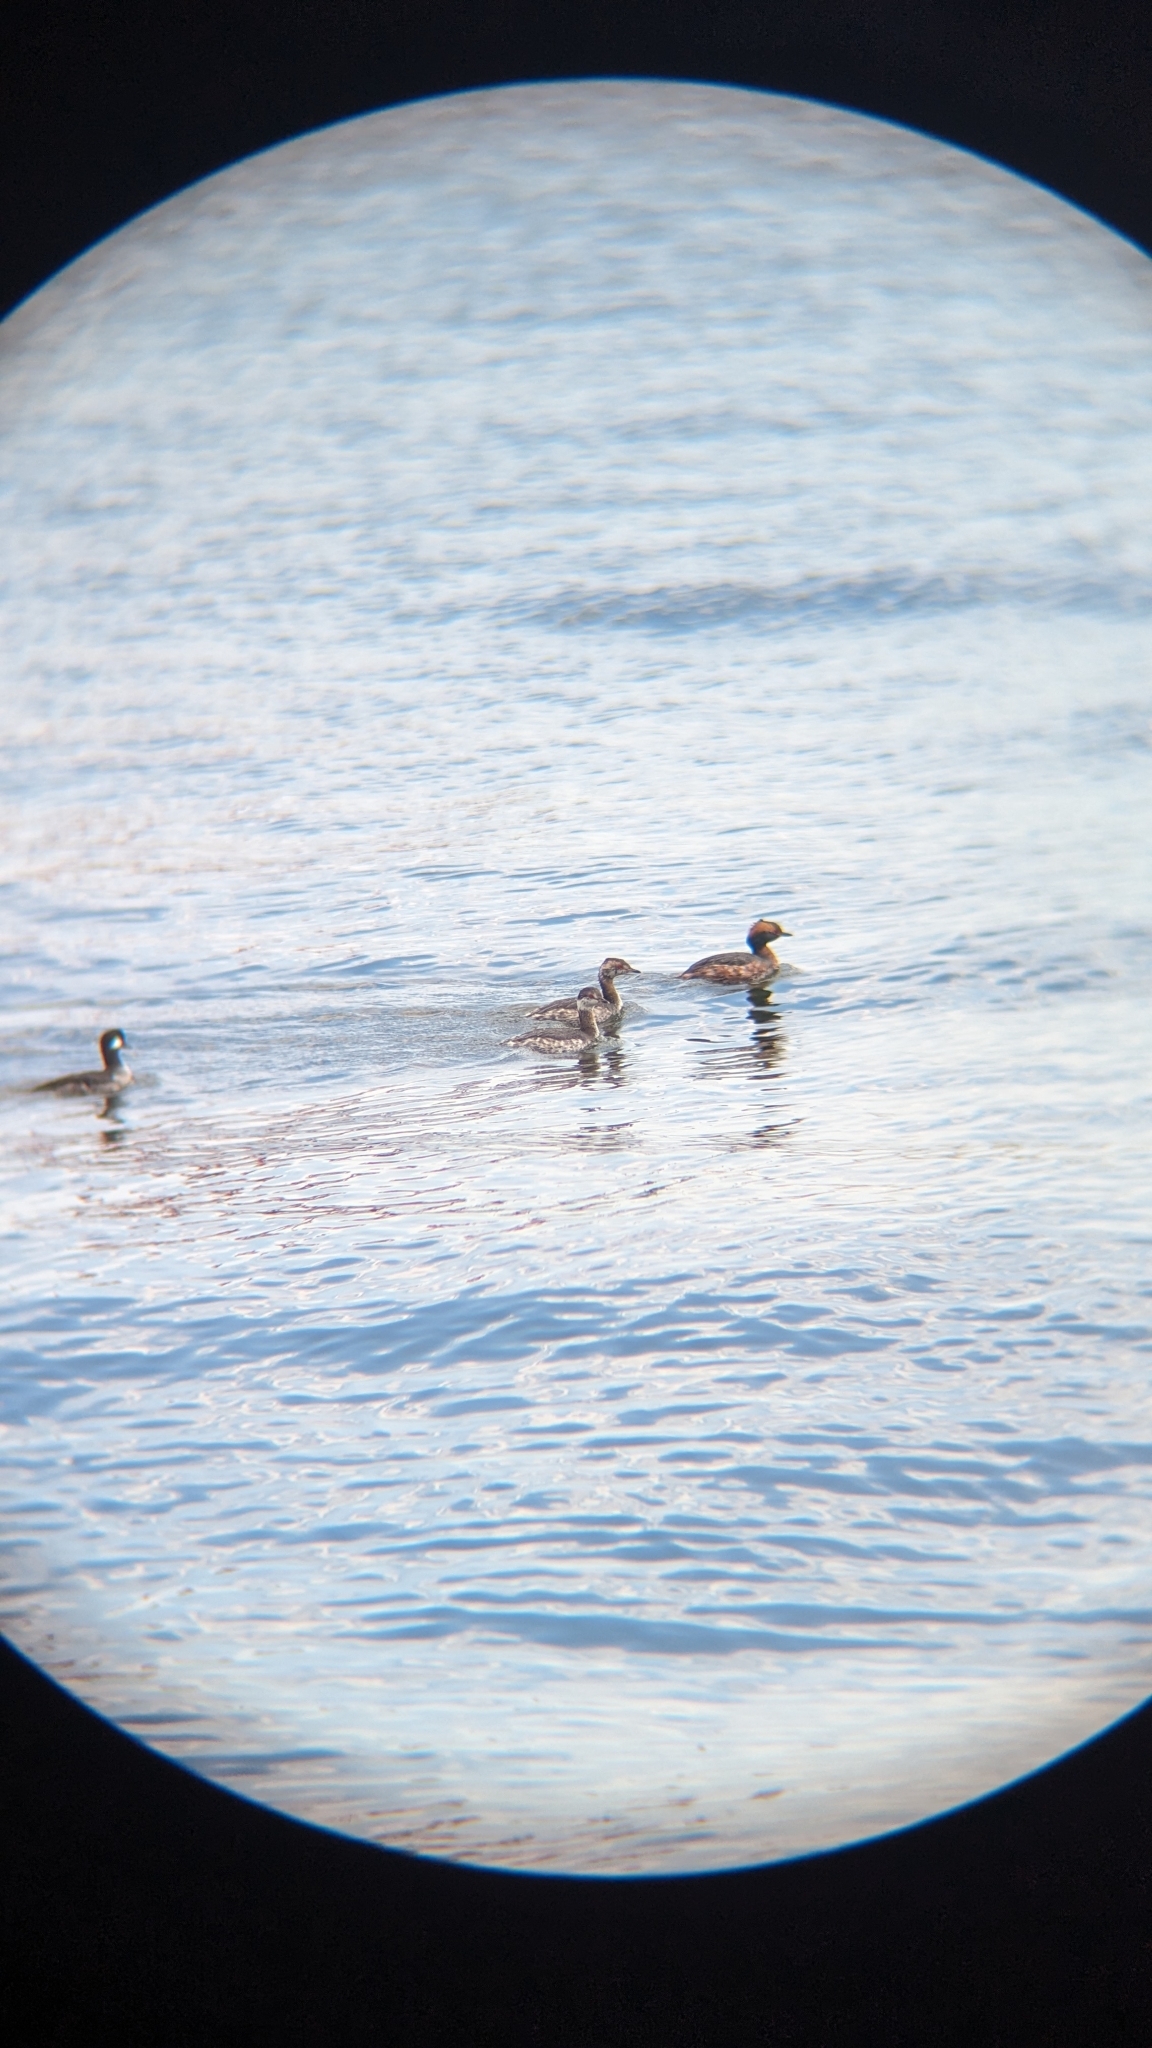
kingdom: Animalia
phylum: Chordata
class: Aves
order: Podicipediformes
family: Podicipedidae
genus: Podiceps
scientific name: Podiceps auritus
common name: Horned grebe
